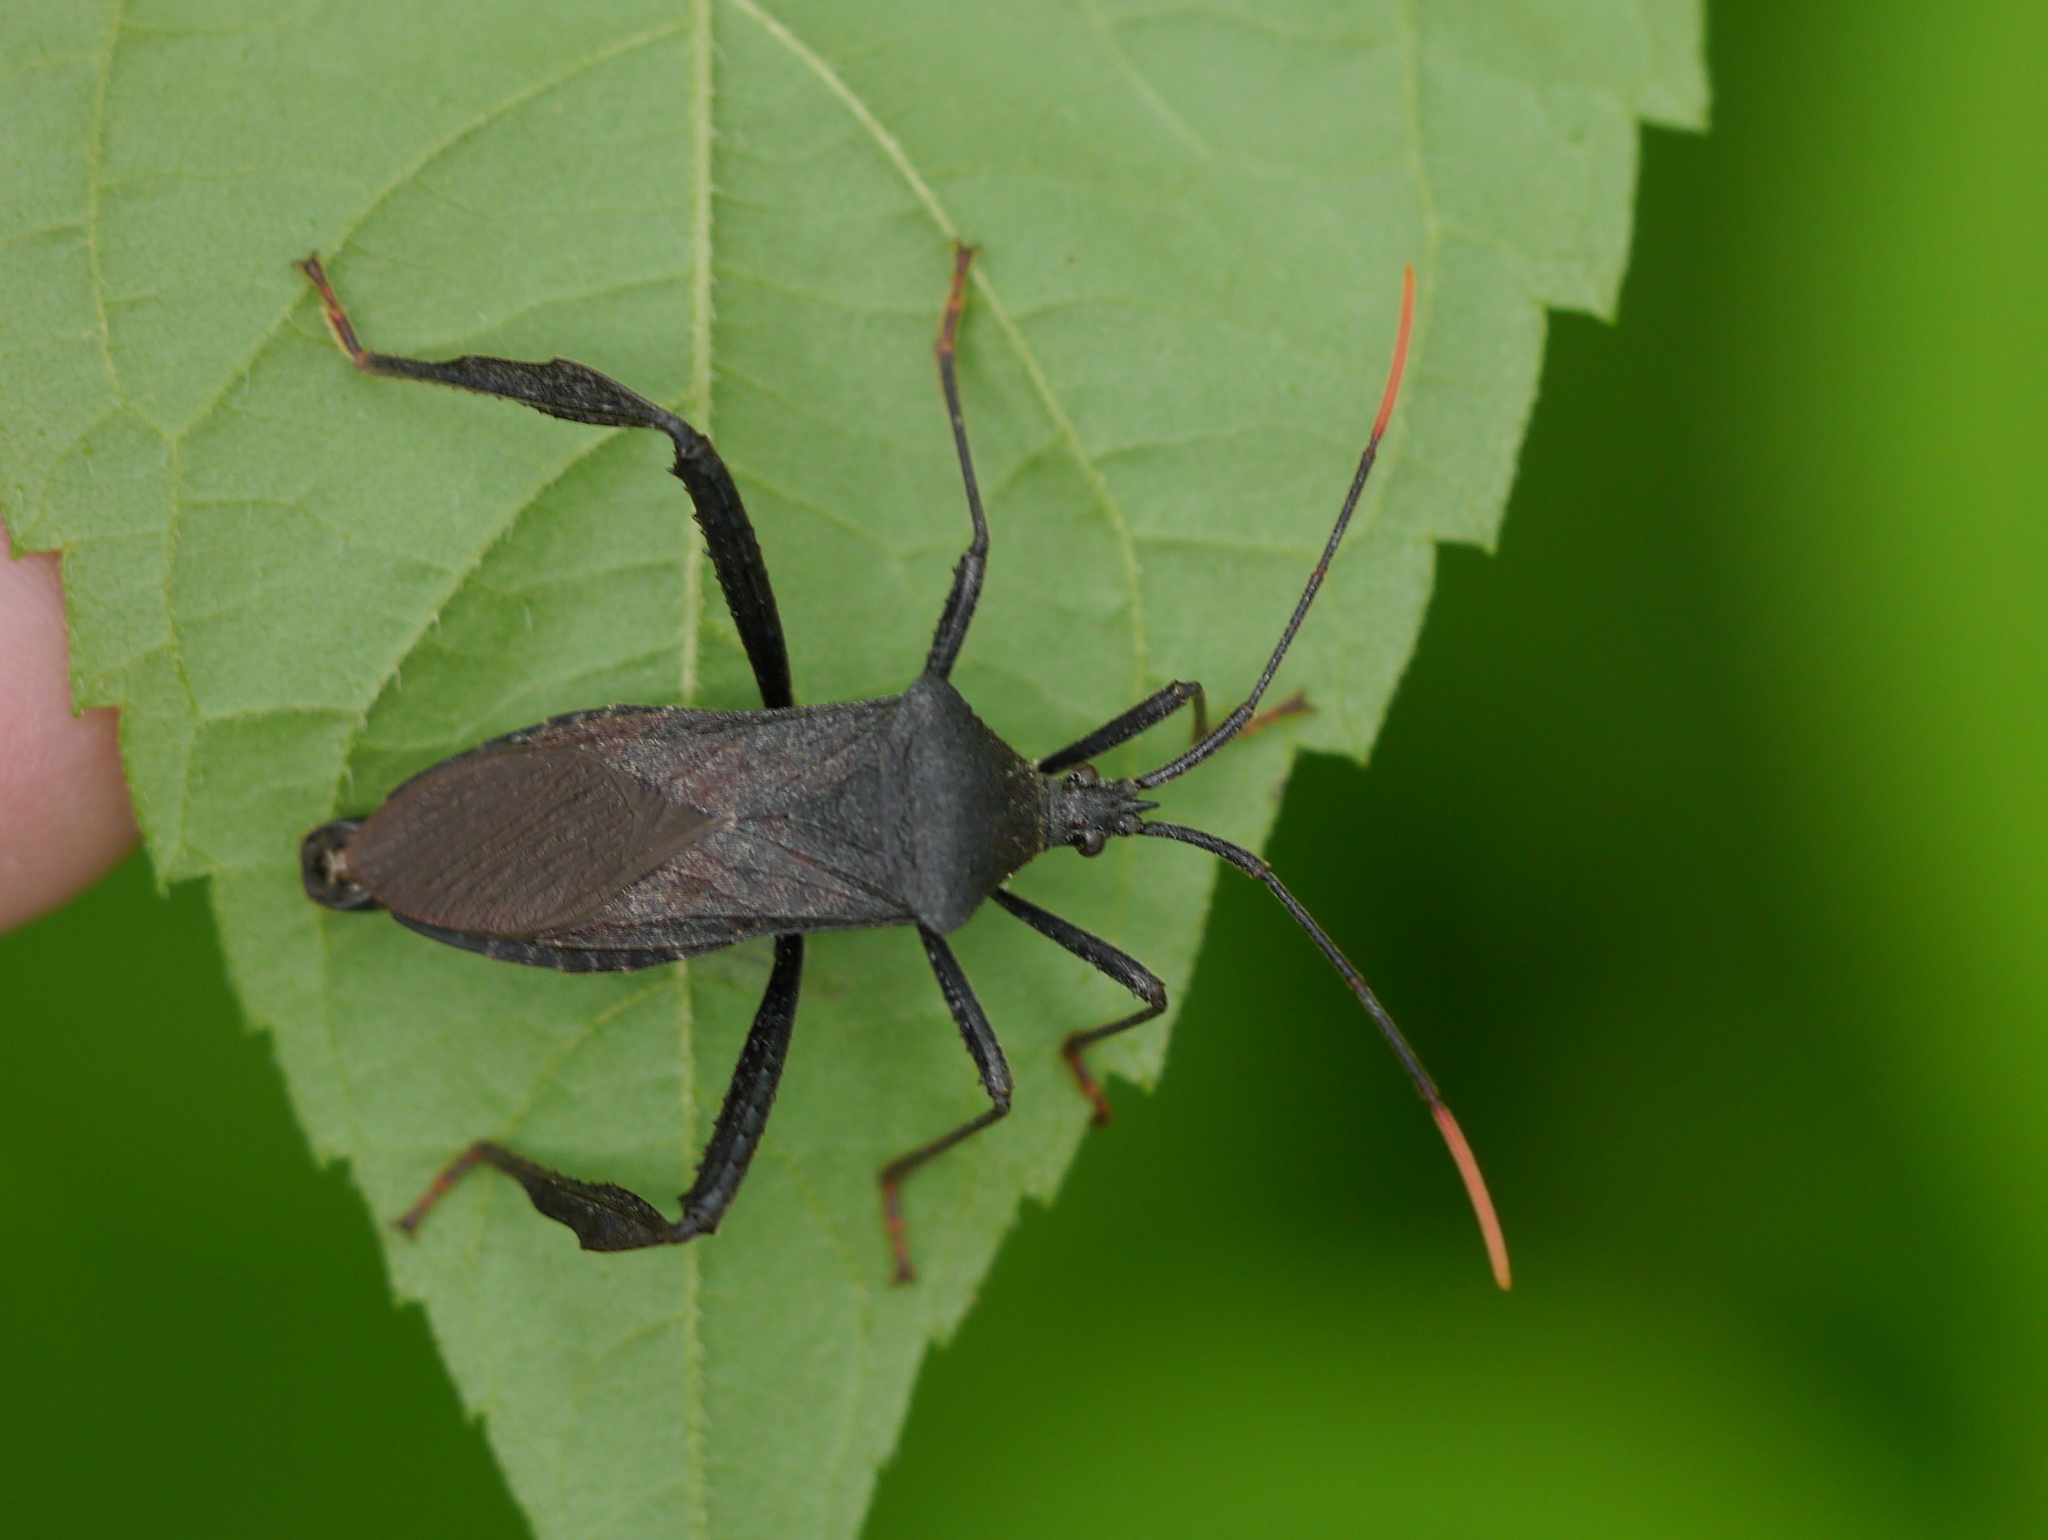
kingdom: Animalia
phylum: Arthropoda
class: Insecta
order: Hemiptera
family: Coreidae
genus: Acanthocephala
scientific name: Acanthocephala terminalis
